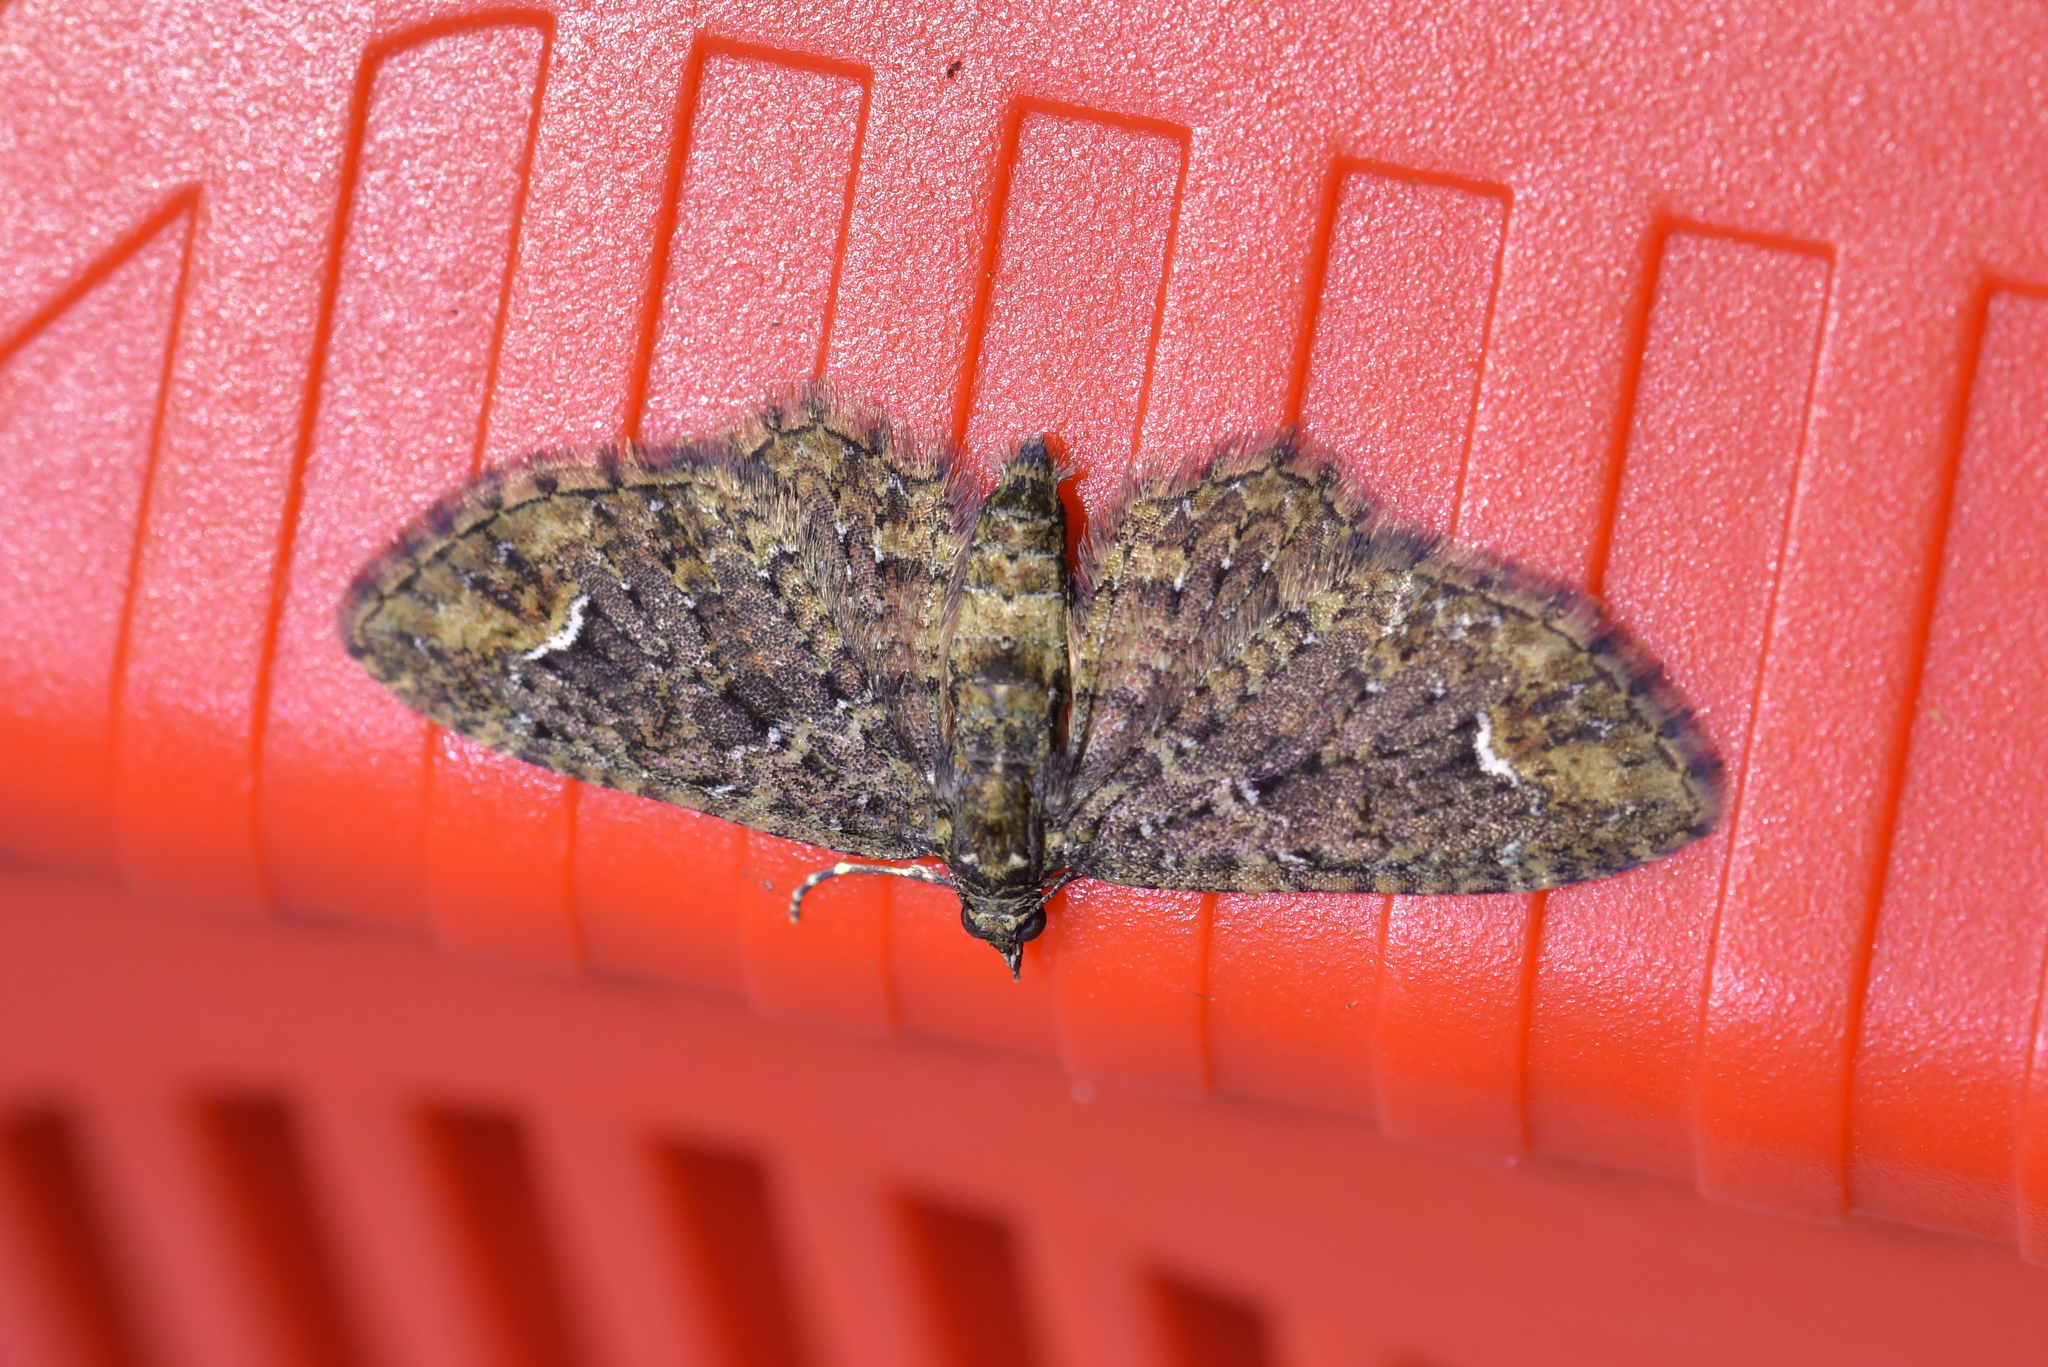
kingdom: Animalia
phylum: Arthropoda
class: Insecta
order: Lepidoptera
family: Geometridae
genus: Pasiphilodes
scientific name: Pasiphilodes testulata
